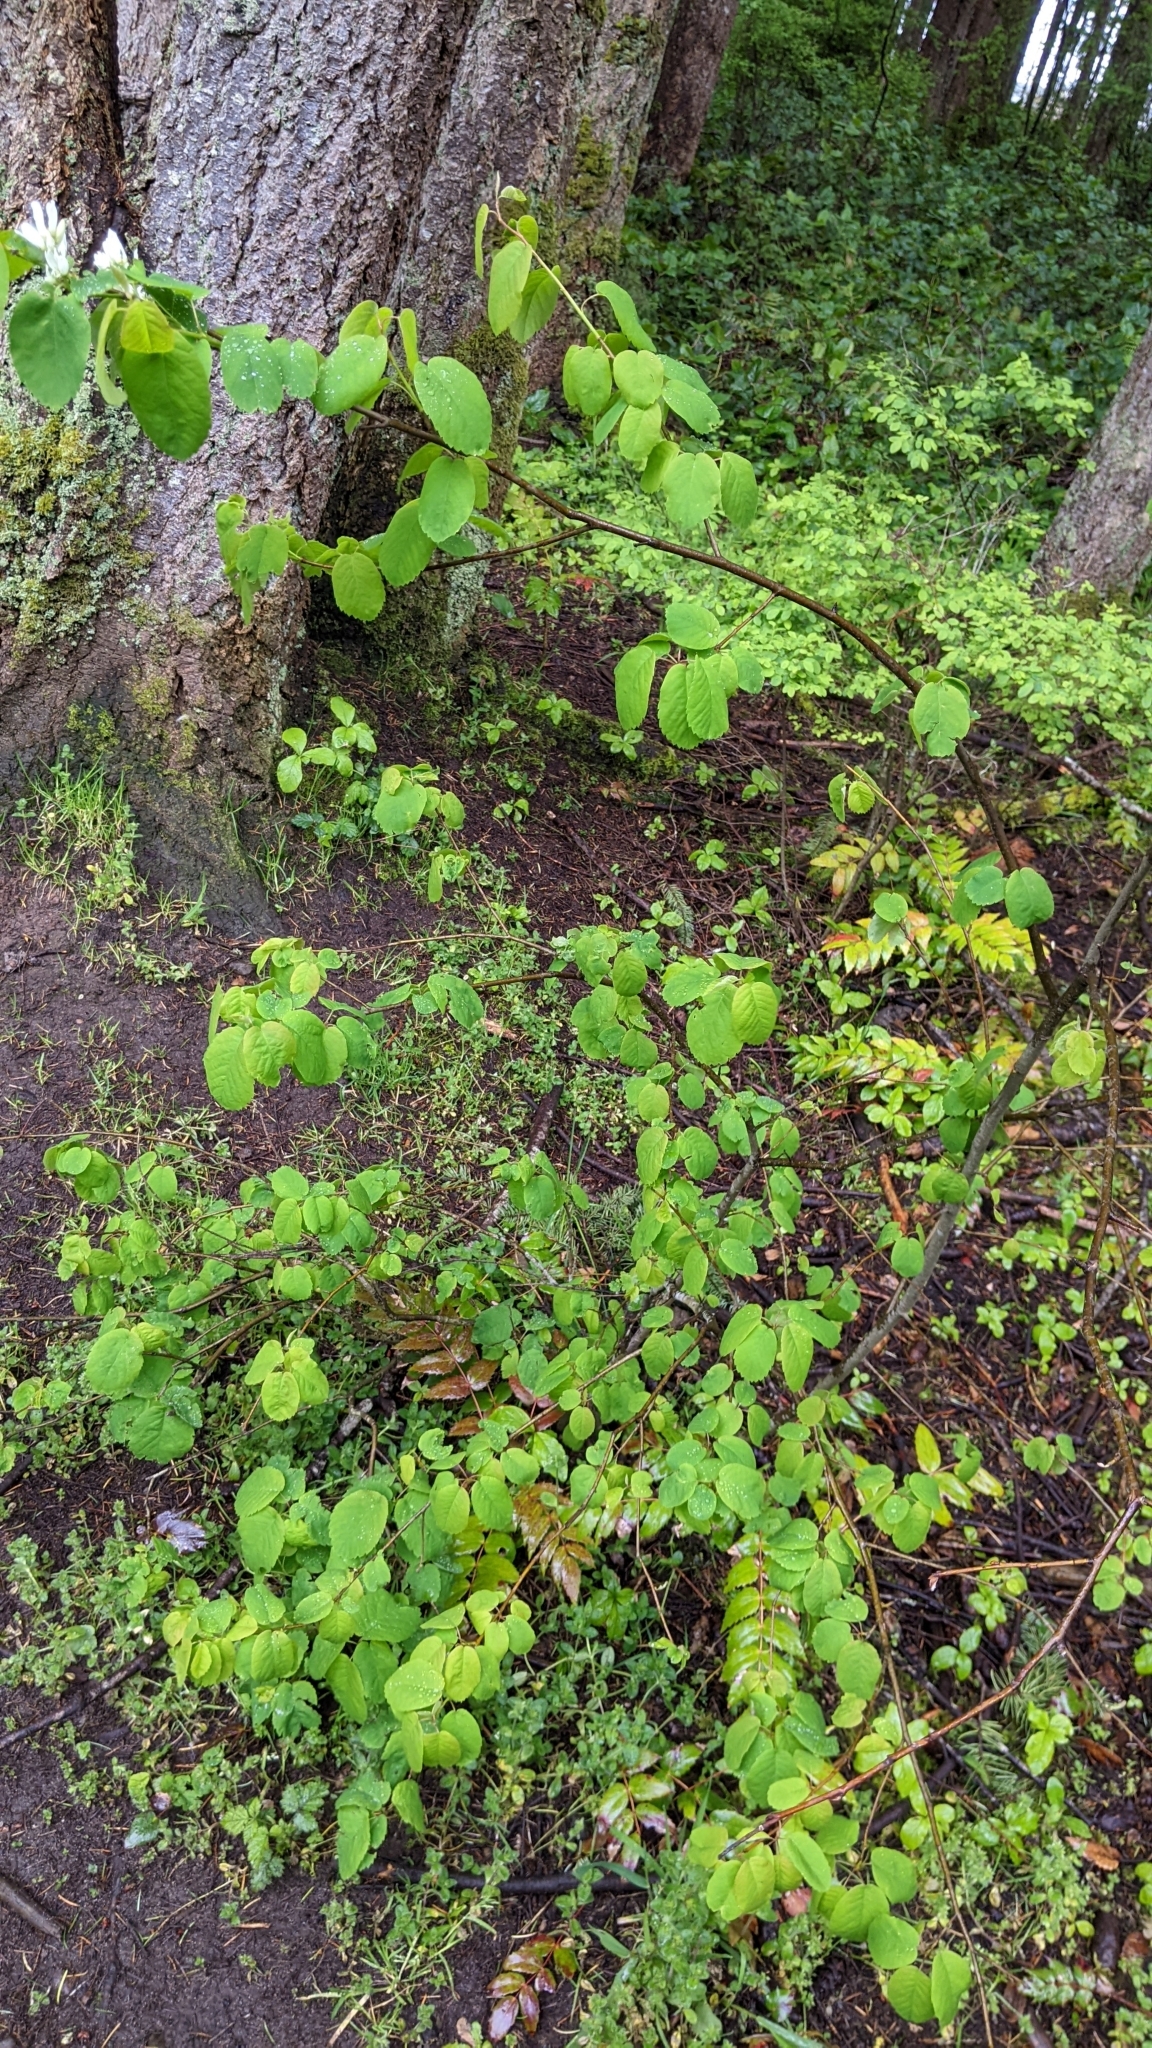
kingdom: Plantae
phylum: Tracheophyta
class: Magnoliopsida
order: Rosales
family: Rosaceae
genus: Amelanchier
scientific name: Amelanchier alnifolia
